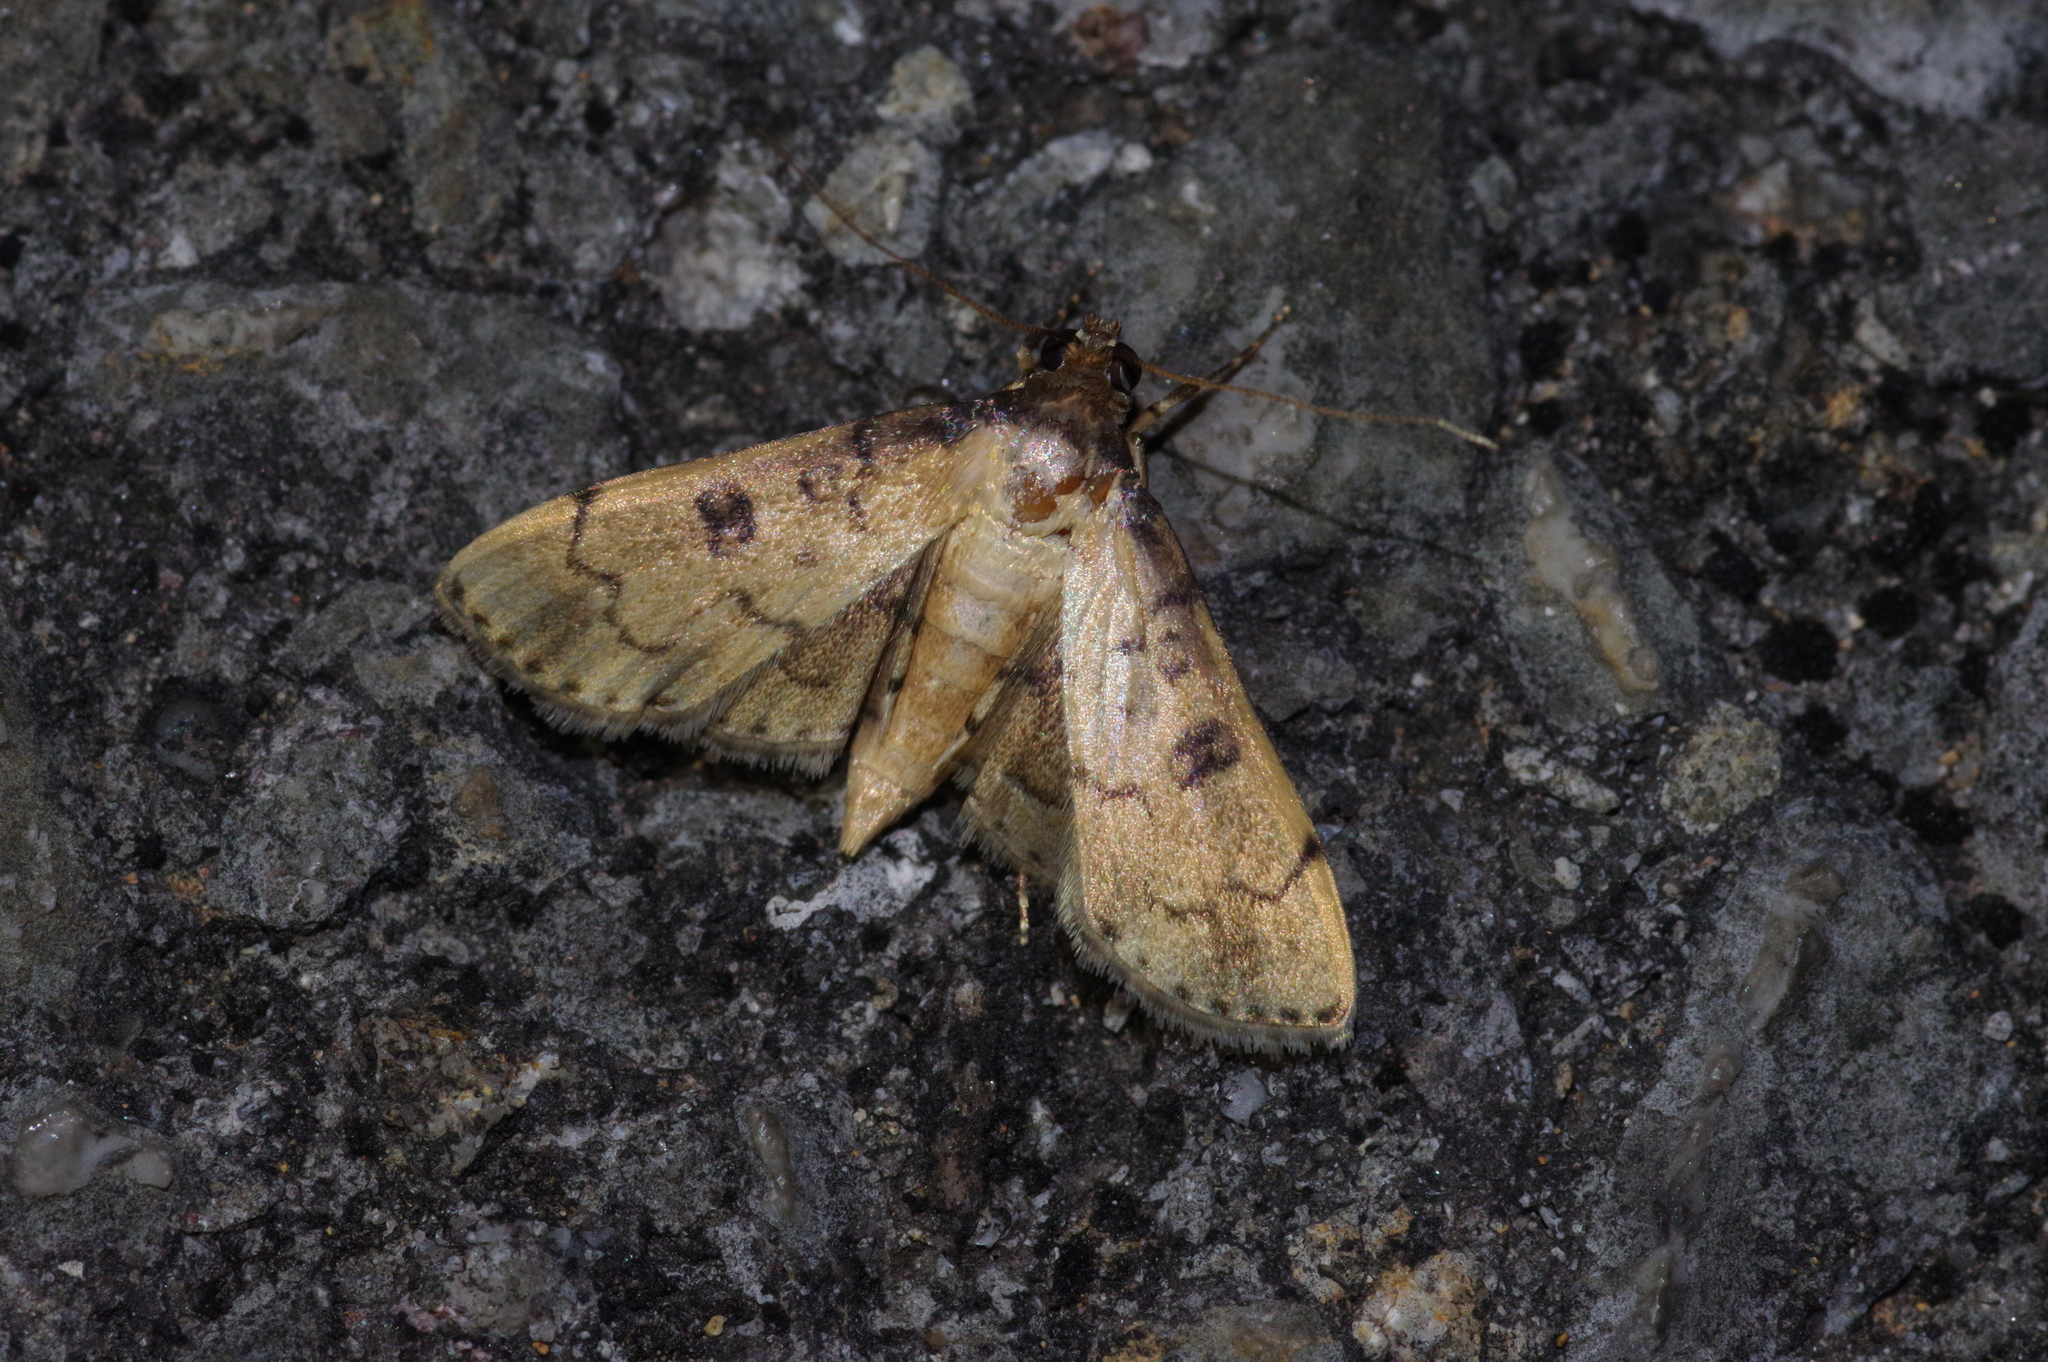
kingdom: Animalia
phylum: Arthropoda
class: Insecta
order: Lepidoptera
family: Crambidae
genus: Nacoleia
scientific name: Nacoleia charesalis
